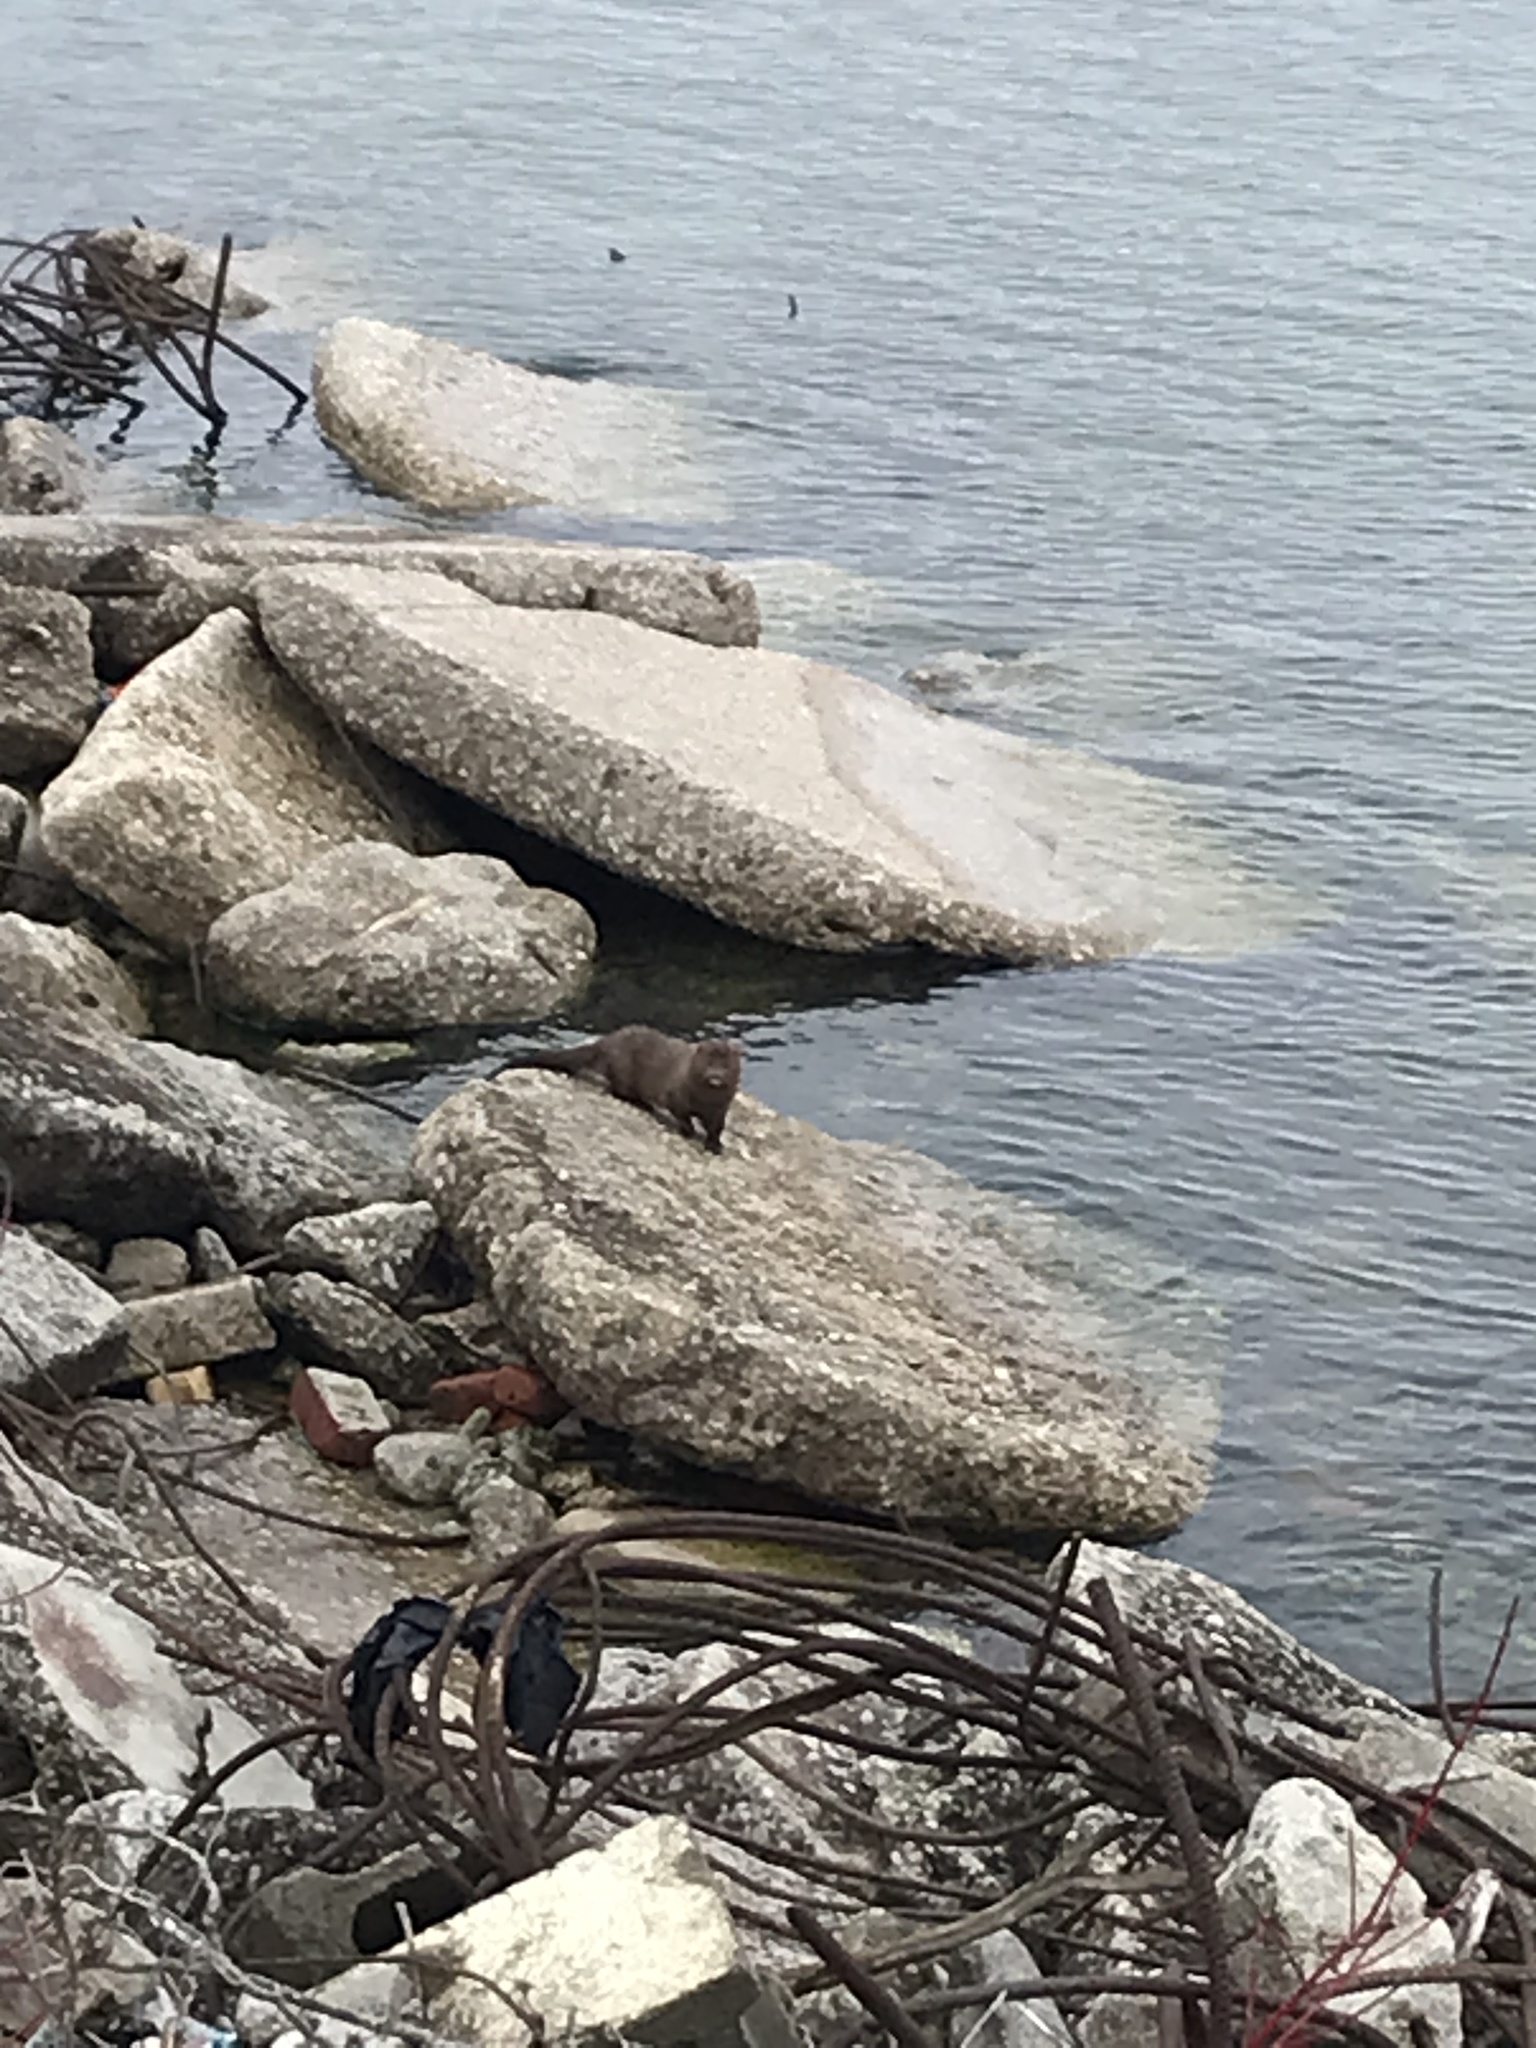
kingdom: Animalia
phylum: Chordata
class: Mammalia
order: Carnivora
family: Mustelidae
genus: Mustela
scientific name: Mustela
